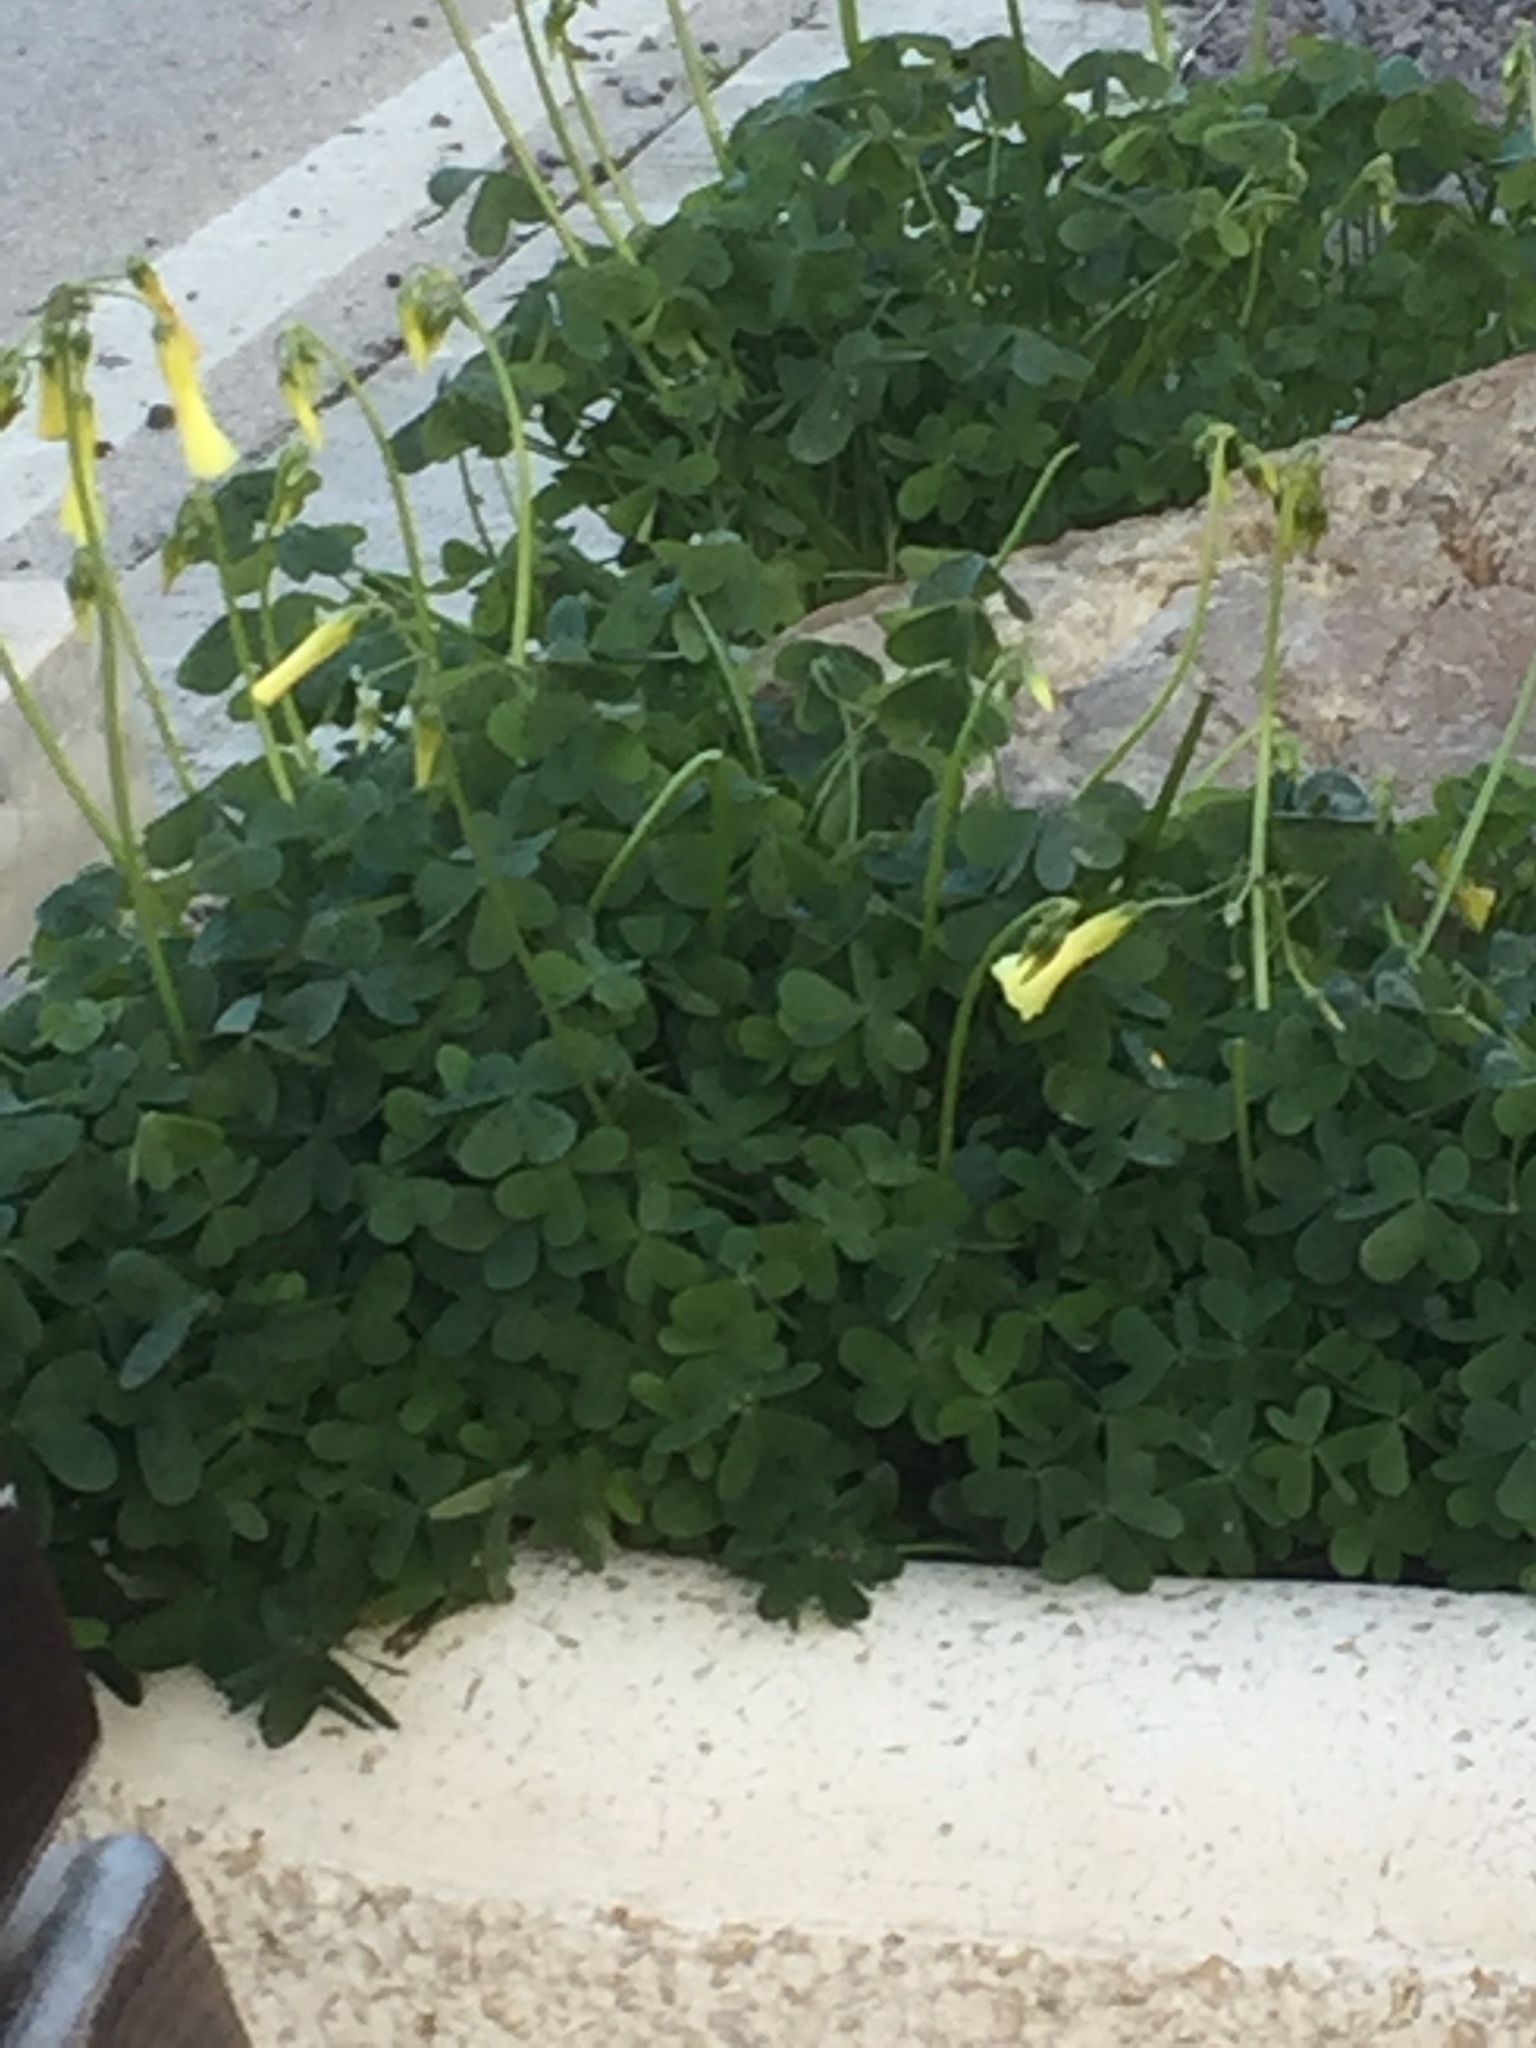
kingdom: Plantae
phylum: Tracheophyta
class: Magnoliopsida
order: Oxalidales
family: Oxalidaceae
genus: Oxalis
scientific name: Oxalis pes-caprae
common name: Bermuda-buttercup
